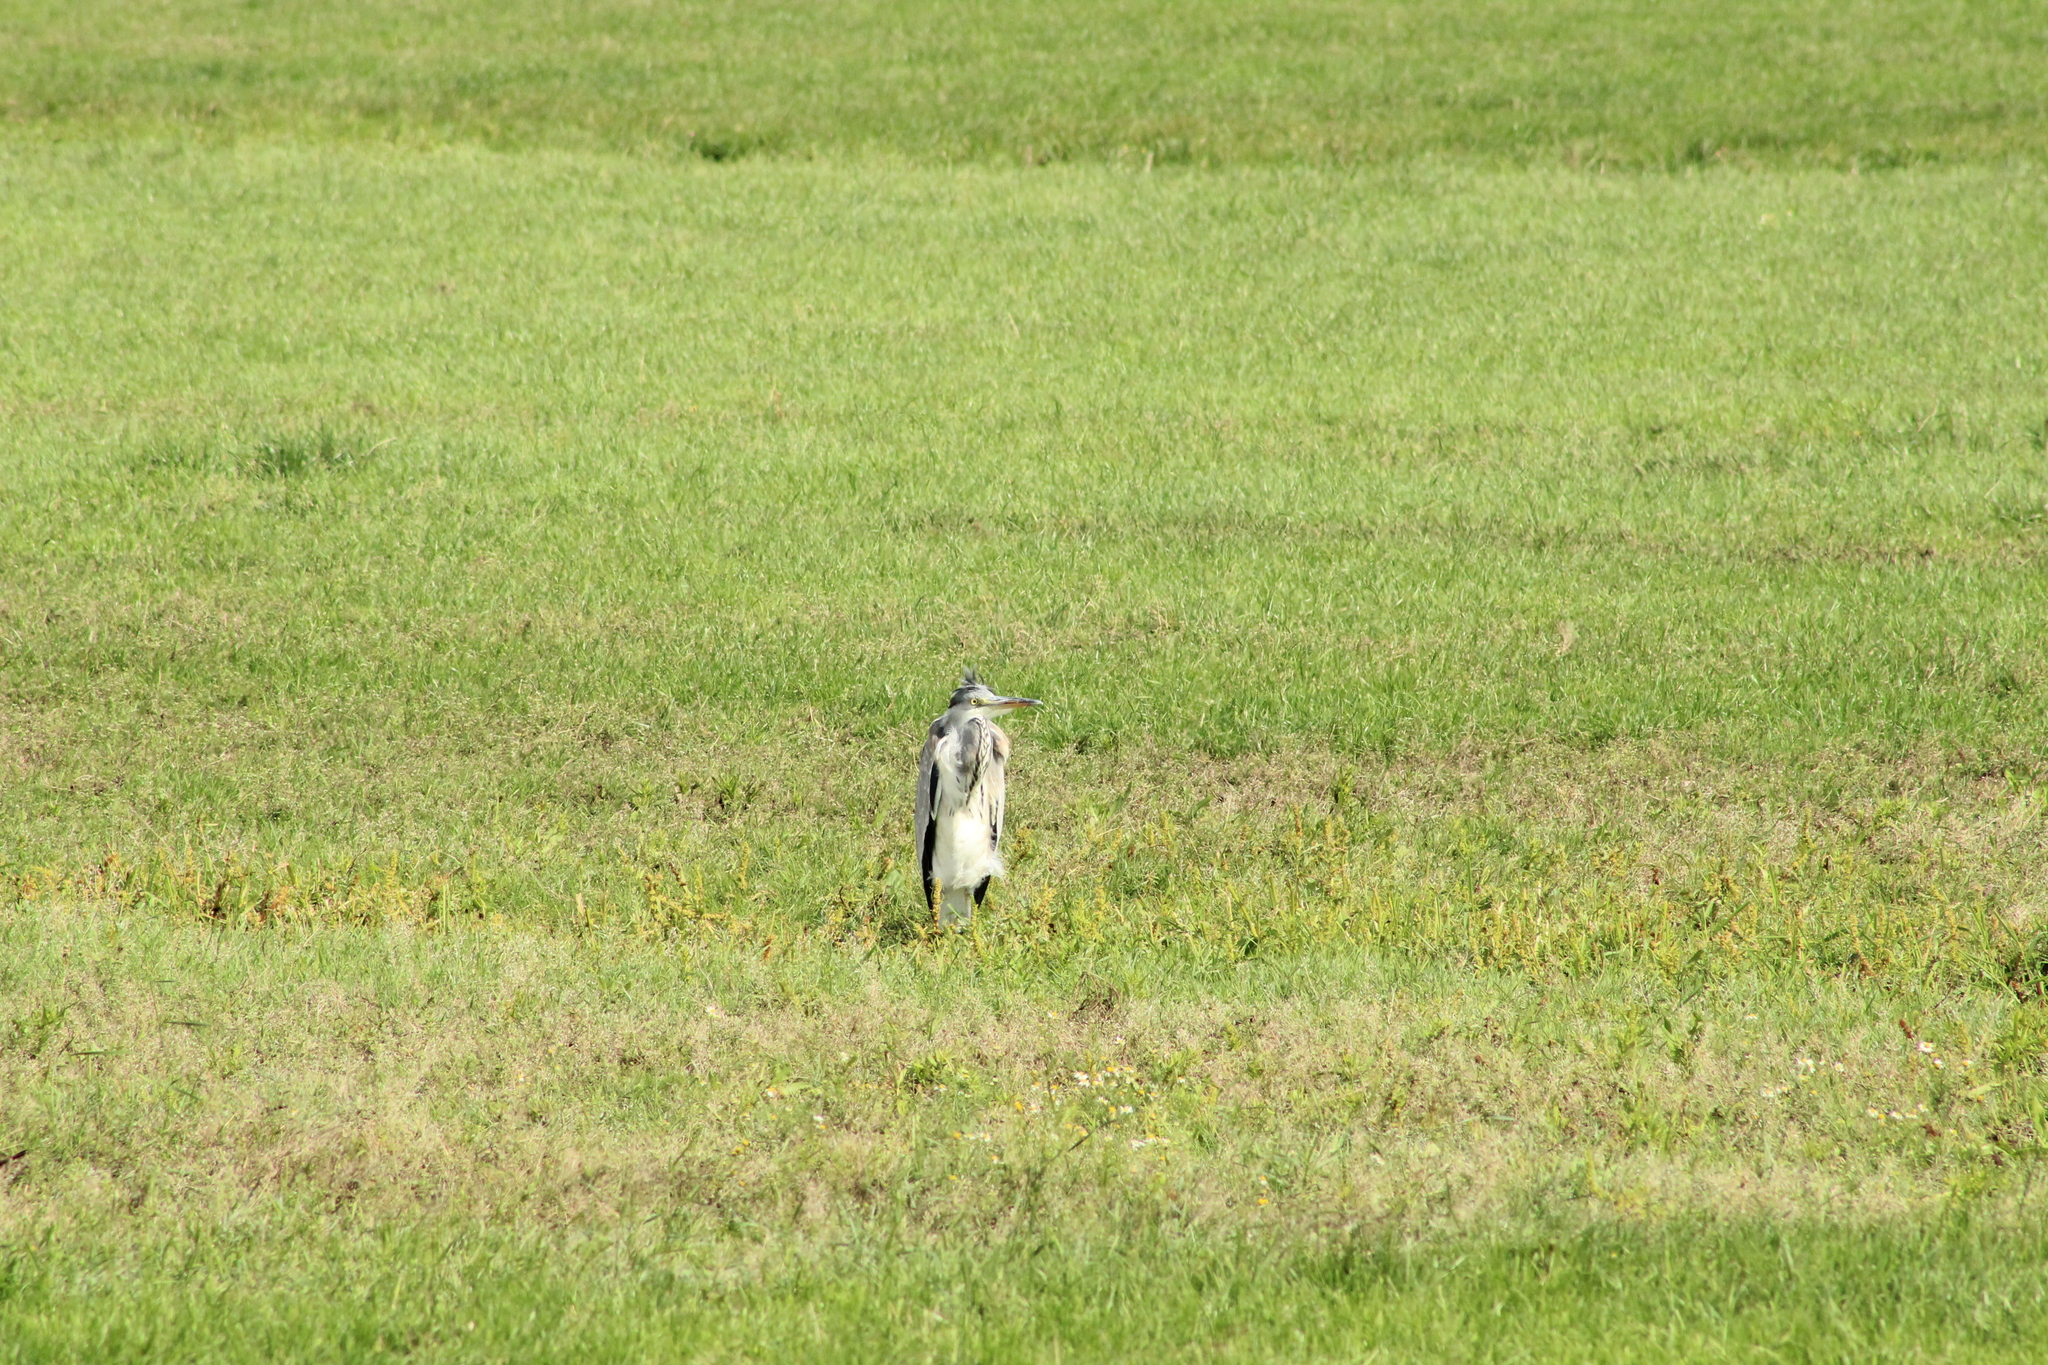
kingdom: Animalia
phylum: Chordata
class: Aves
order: Pelecaniformes
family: Ardeidae
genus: Ardea
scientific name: Ardea cinerea
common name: Grey heron
